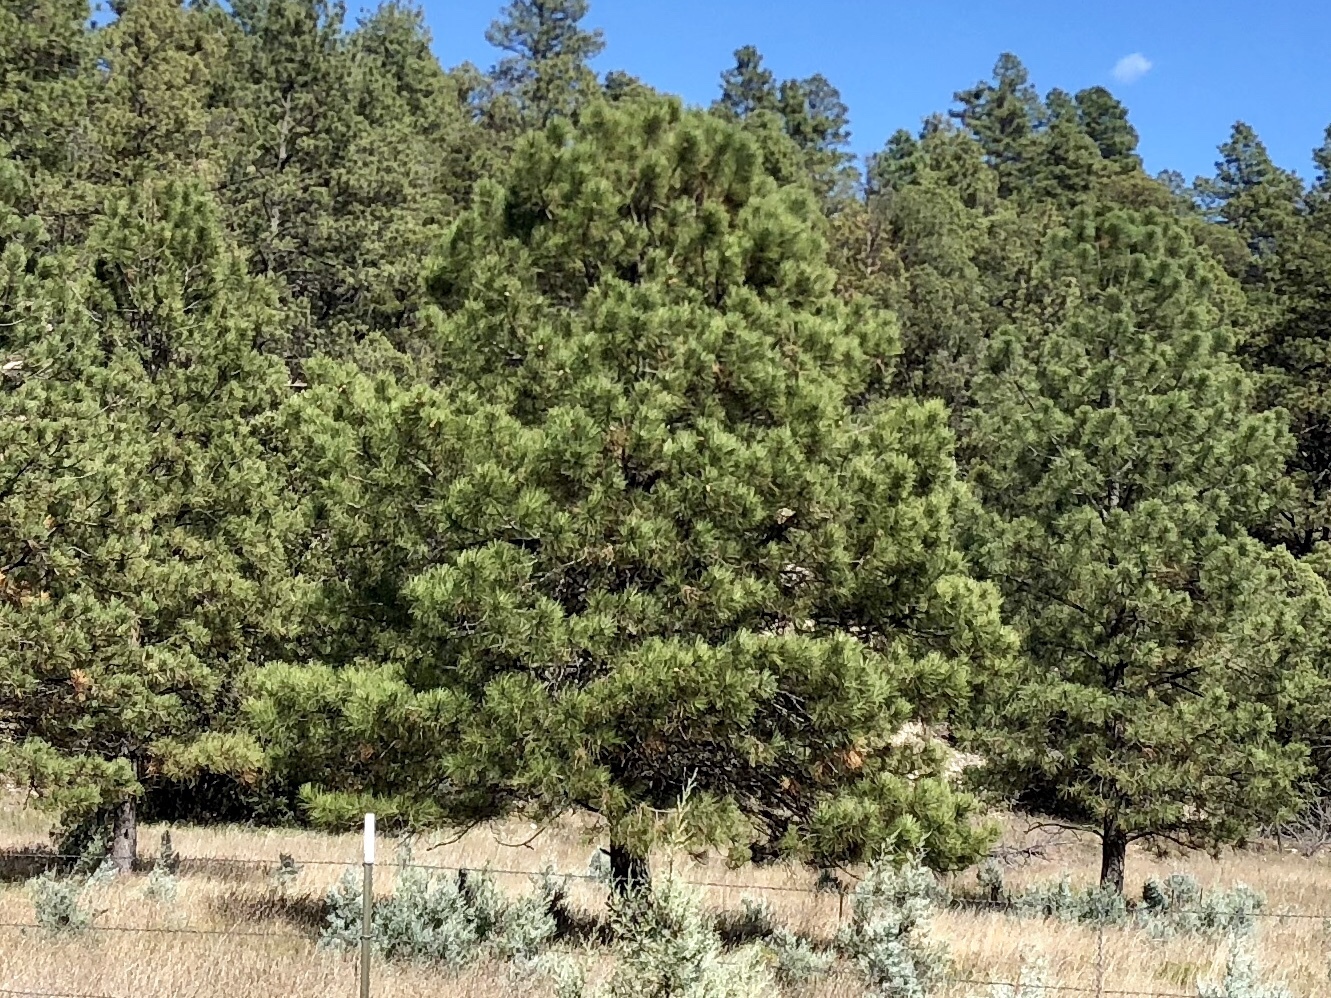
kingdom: Plantae
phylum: Tracheophyta
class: Pinopsida
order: Pinales
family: Pinaceae
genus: Pinus
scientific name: Pinus ponderosa
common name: Western yellow-pine
